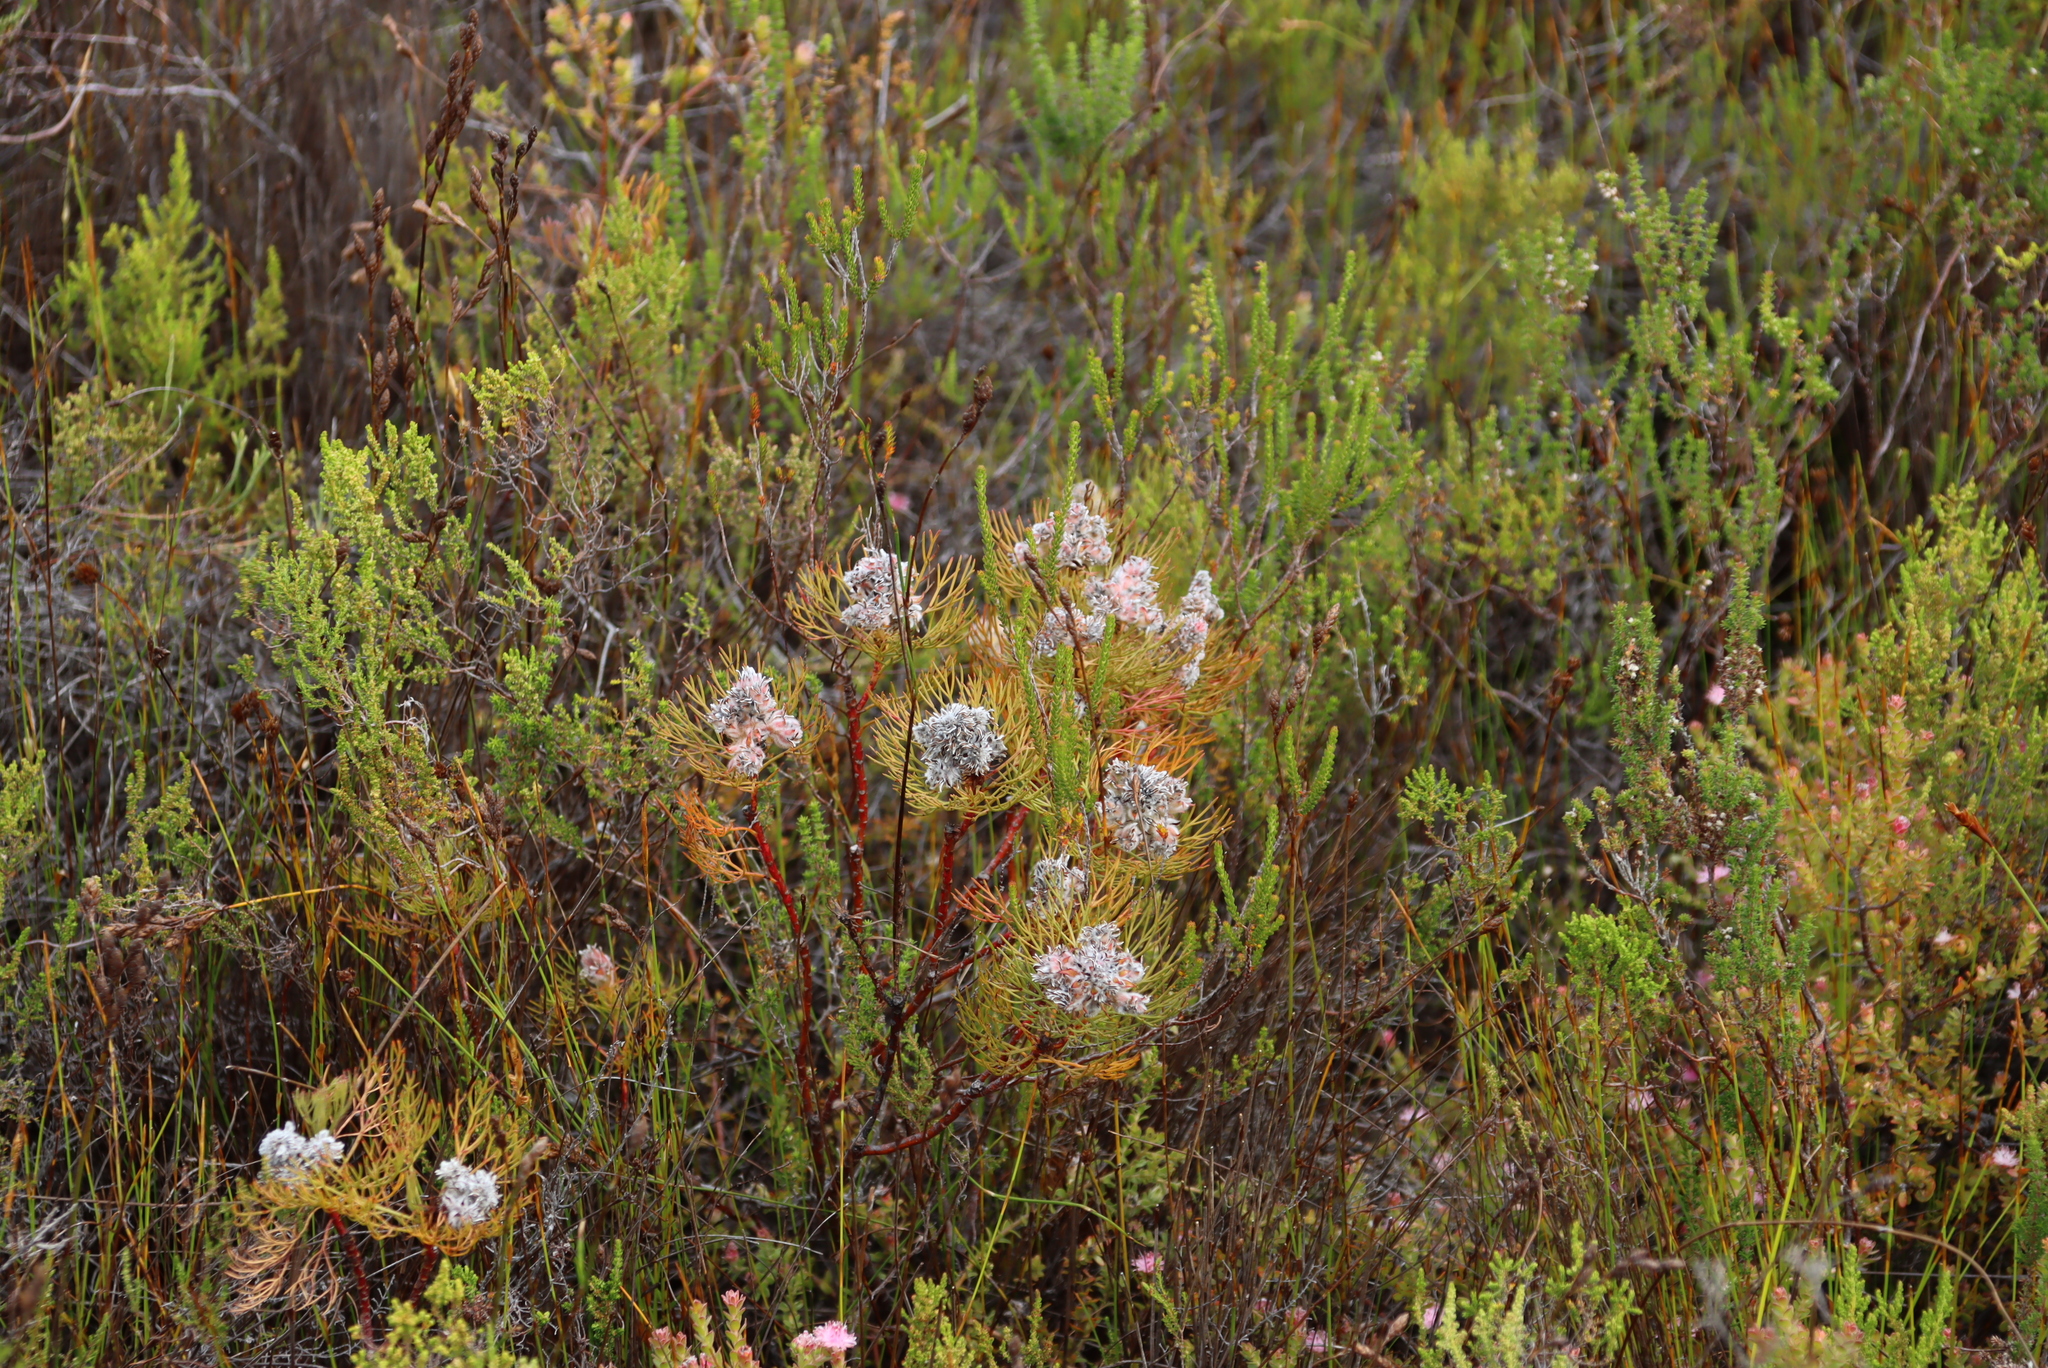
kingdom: Plantae
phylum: Tracheophyta
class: Magnoliopsida
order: Proteales
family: Proteaceae
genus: Serruria
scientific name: Serruria glomerata
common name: Cluster spiderhead
